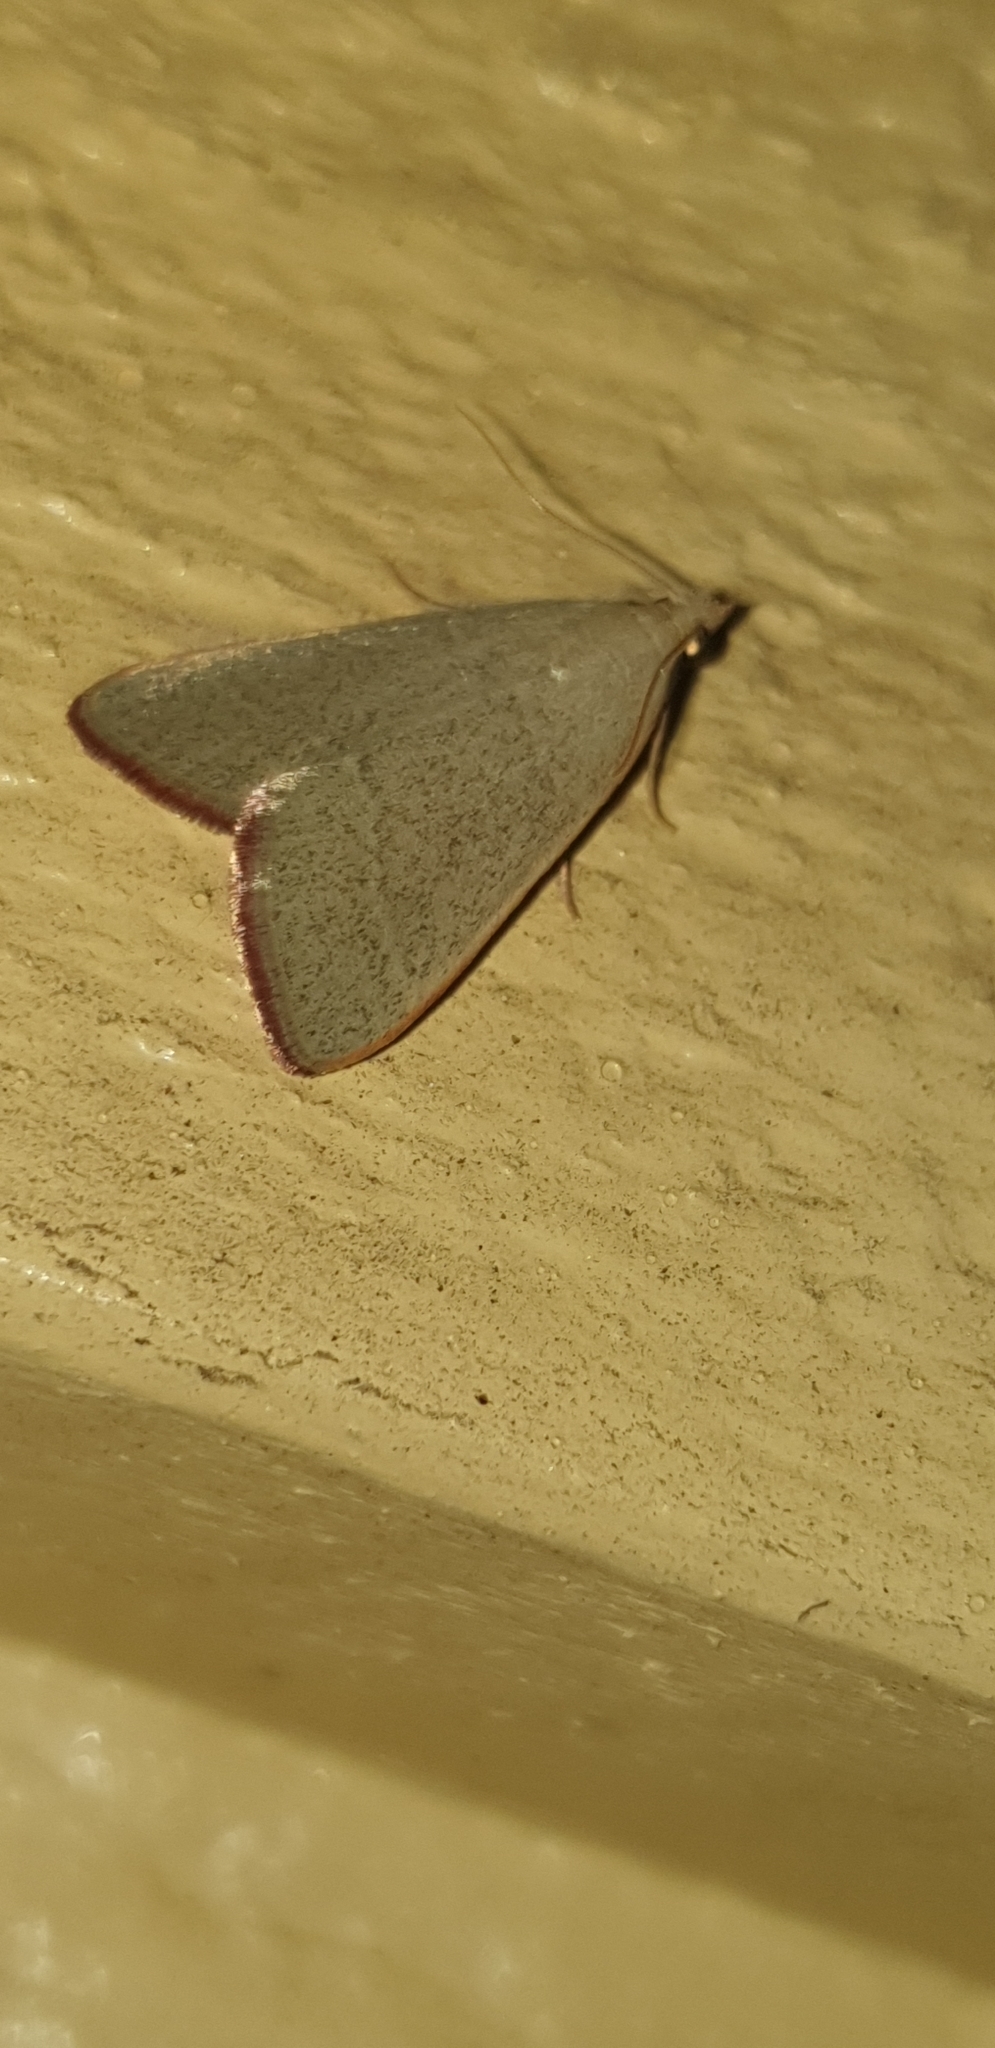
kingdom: Animalia
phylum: Arthropoda
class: Insecta
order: Lepidoptera
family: Pyralidae
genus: Hypsopygia
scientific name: Hypsopygia
